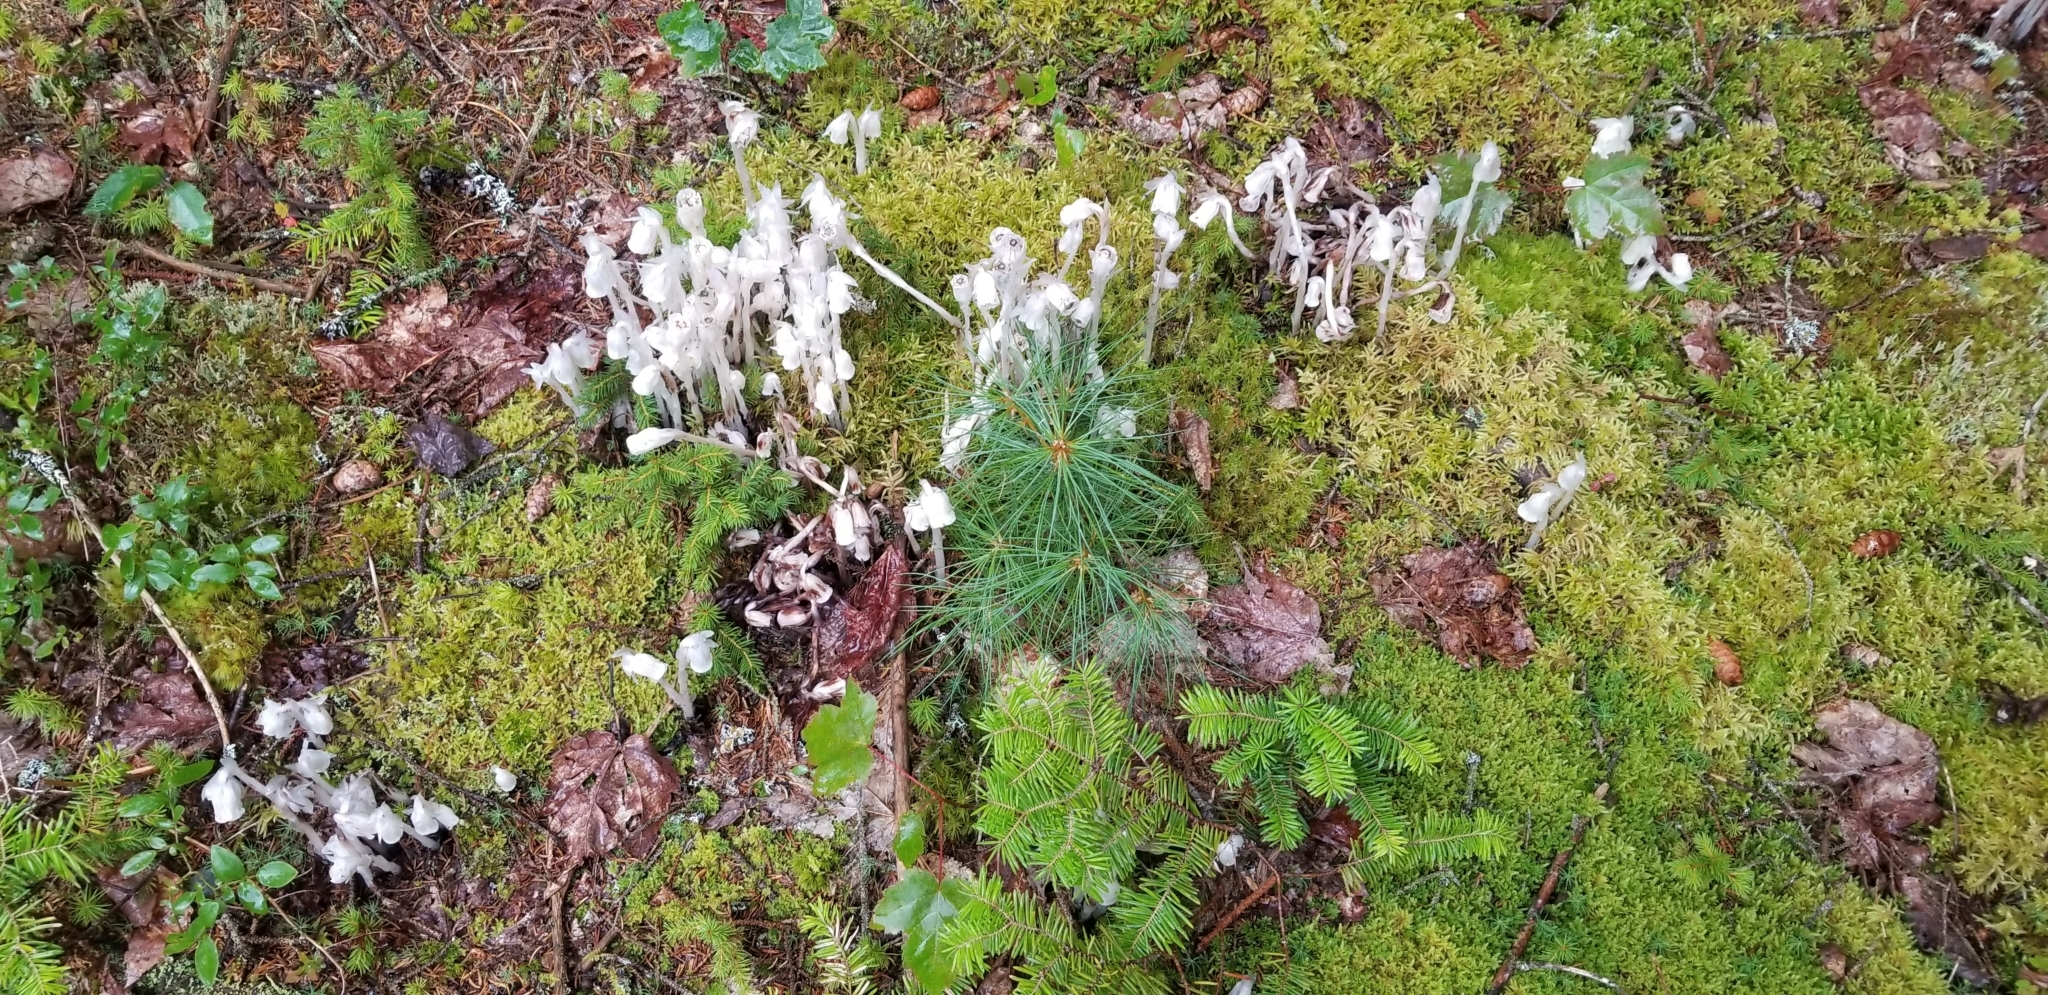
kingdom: Plantae
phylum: Tracheophyta
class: Magnoliopsida
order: Ericales
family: Ericaceae
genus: Monotropa
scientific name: Monotropa uniflora
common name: Convulsion root
